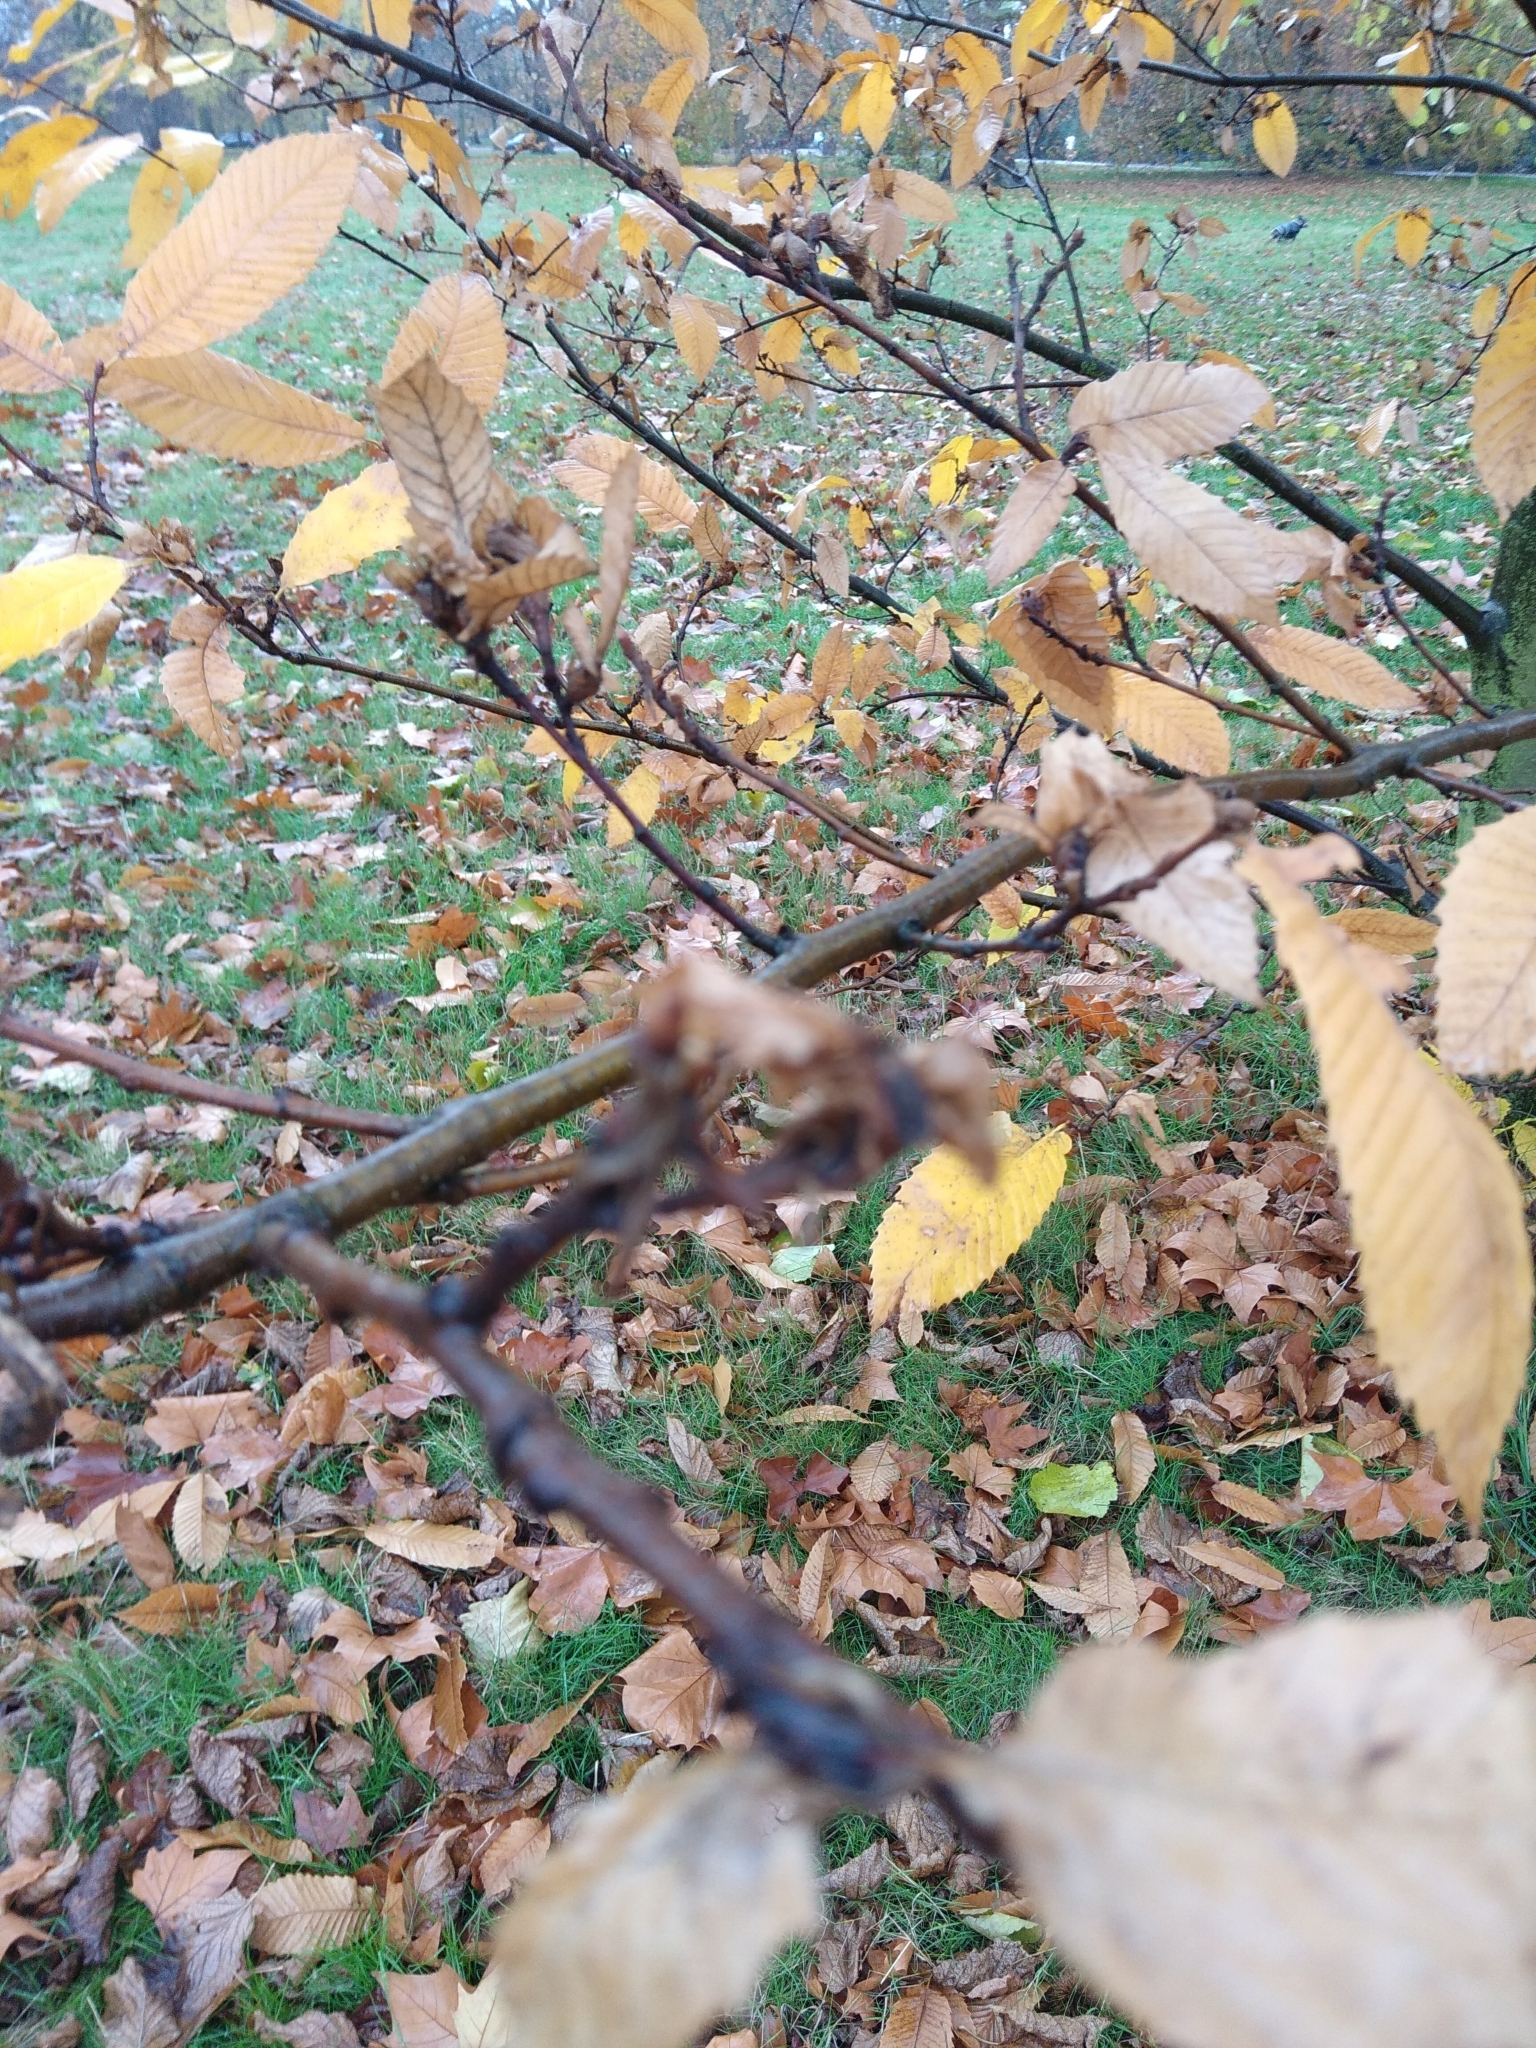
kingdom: Animalia
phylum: Arthropoda
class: Insecta
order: Hymenoptera
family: Cynipidae
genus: Dryocosmus
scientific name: Dryocosmus kuriphilus
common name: Asian chestnut gall wasp
